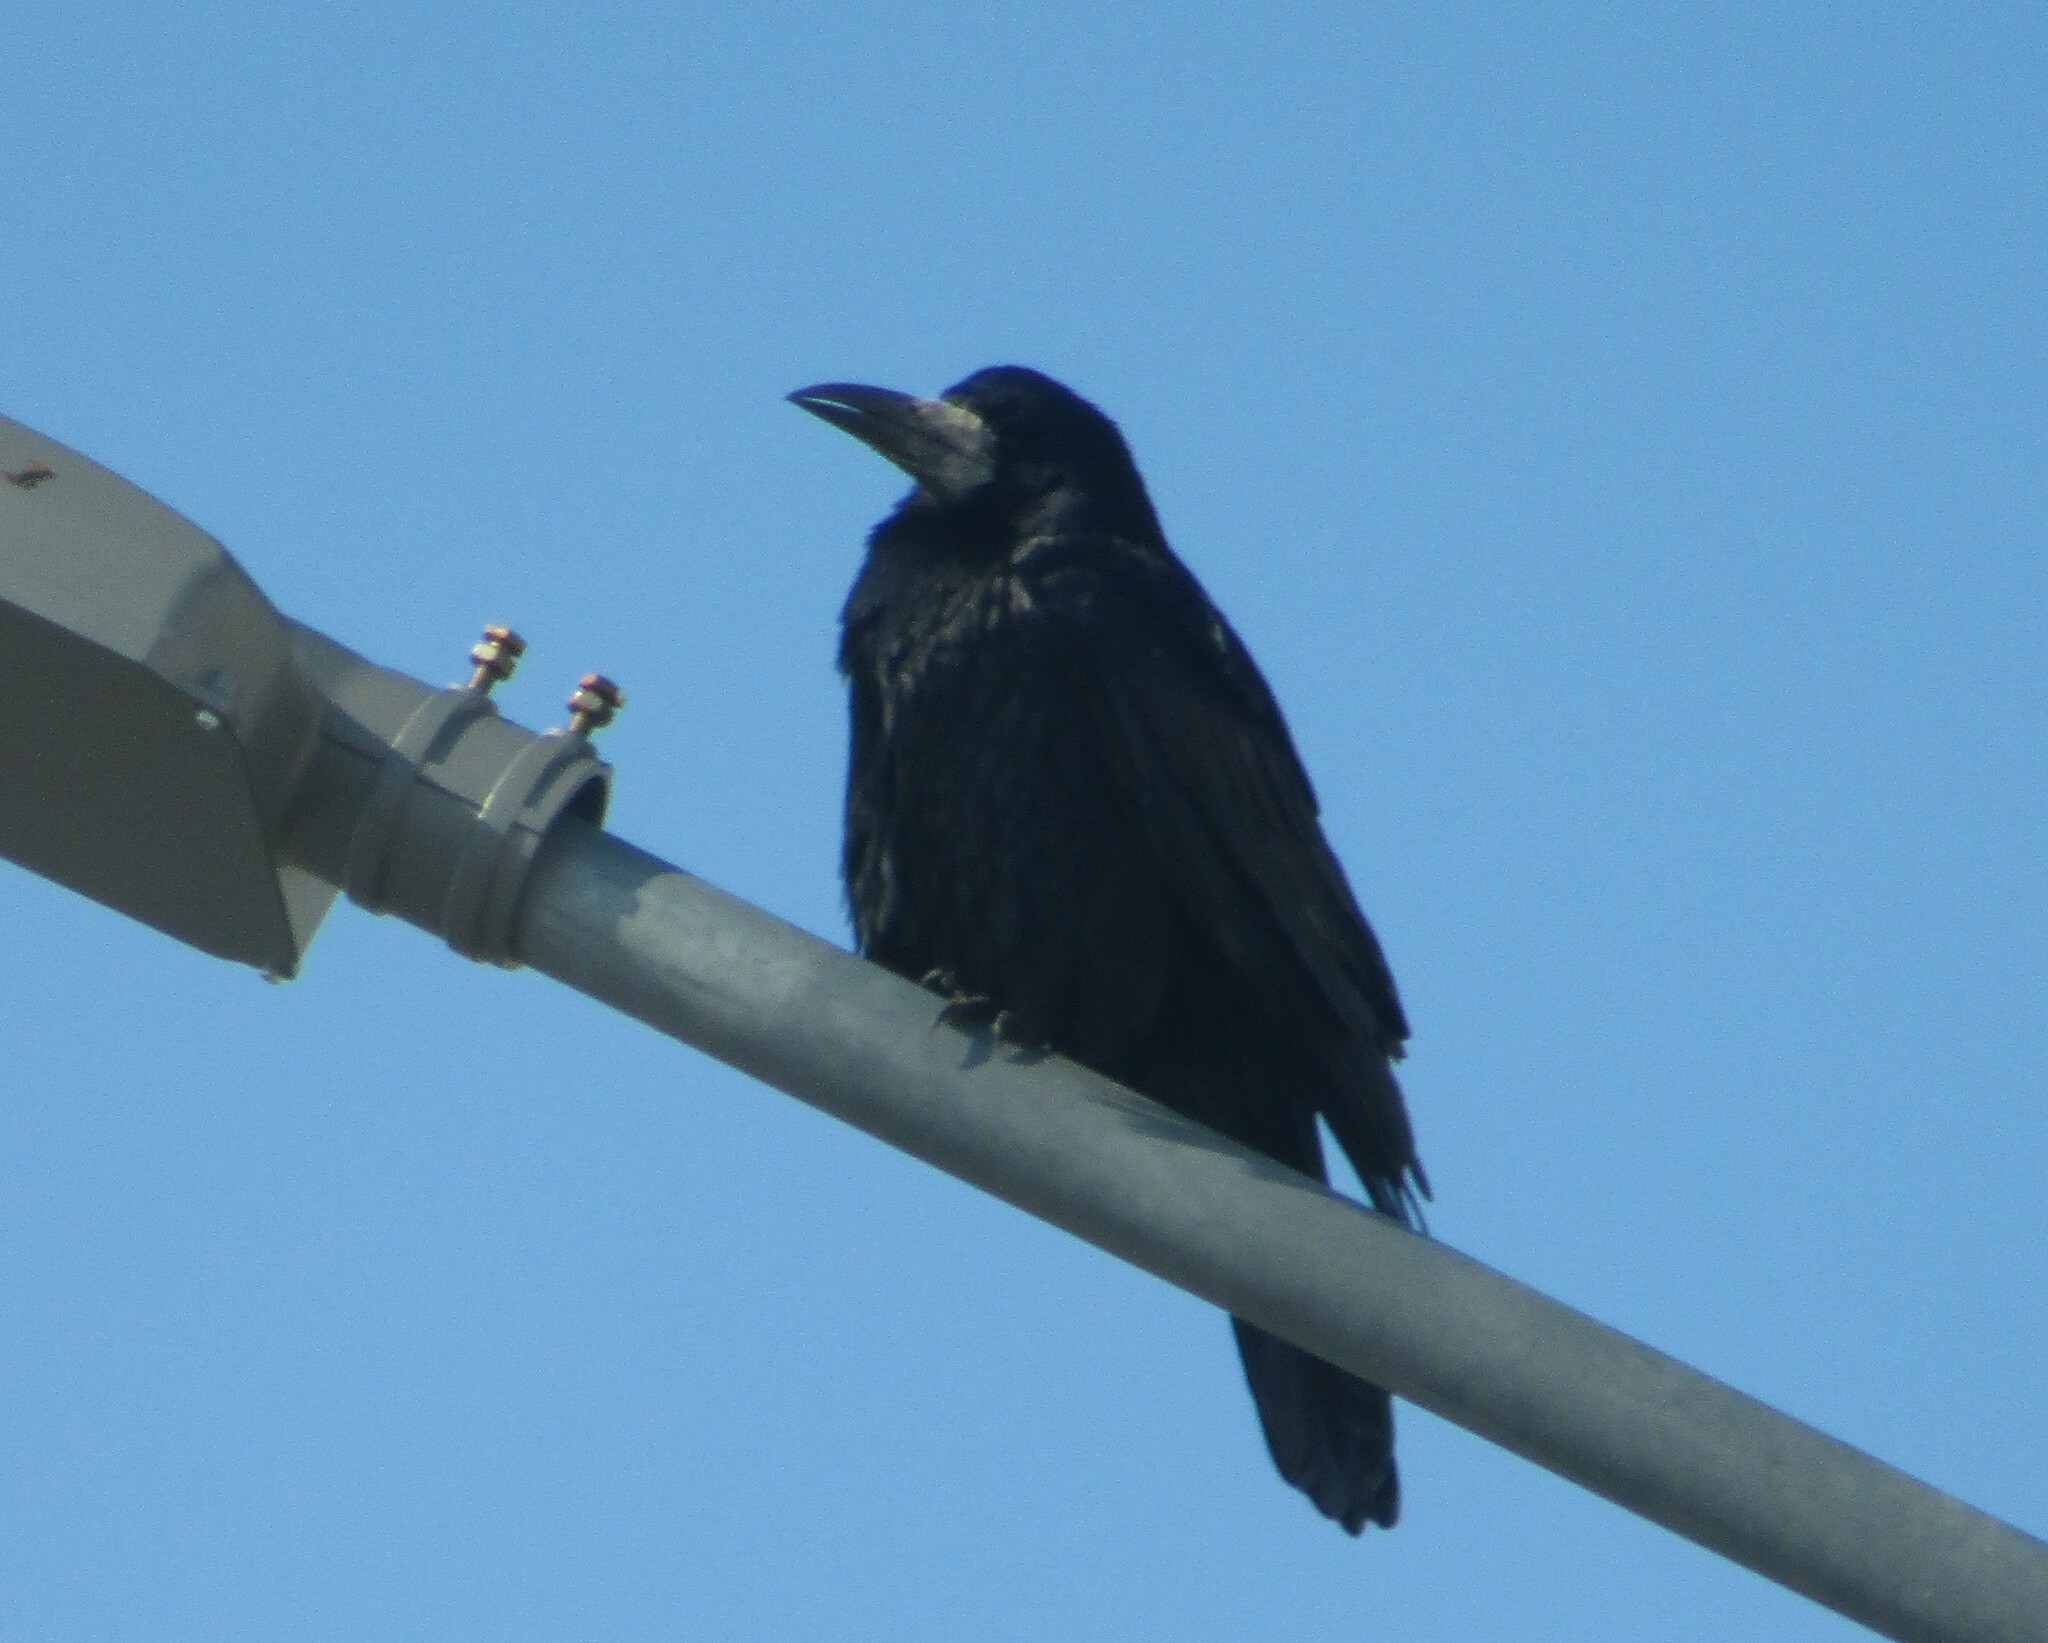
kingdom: Animalia
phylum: Chordata
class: Aves
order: Passeriformes
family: Corvidae
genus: Corvus
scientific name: Corvus frugilegus
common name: Rook
